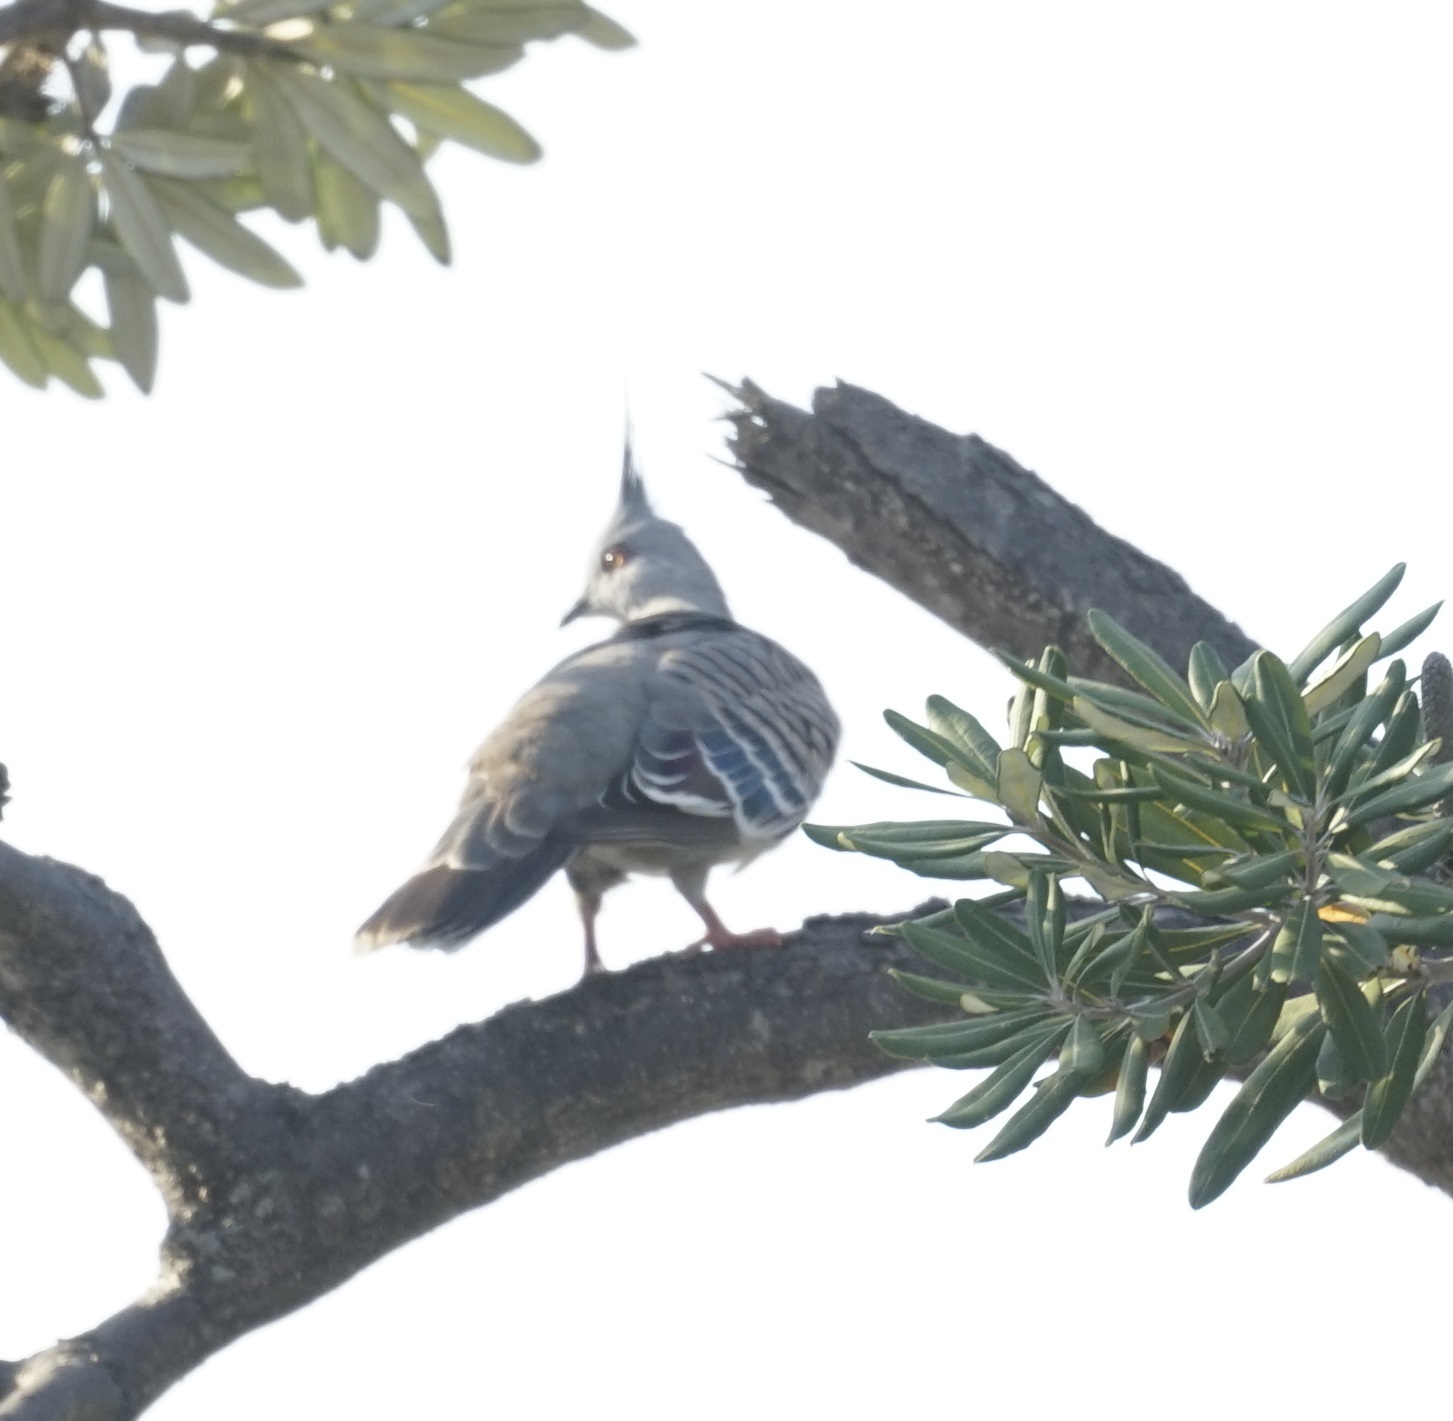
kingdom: Animalia
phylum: Chordata
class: Aves
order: Columbiformes
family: Columbidae
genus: Ocyphaps
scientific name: Ocyphaps lophotes
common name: Crested pigeon
